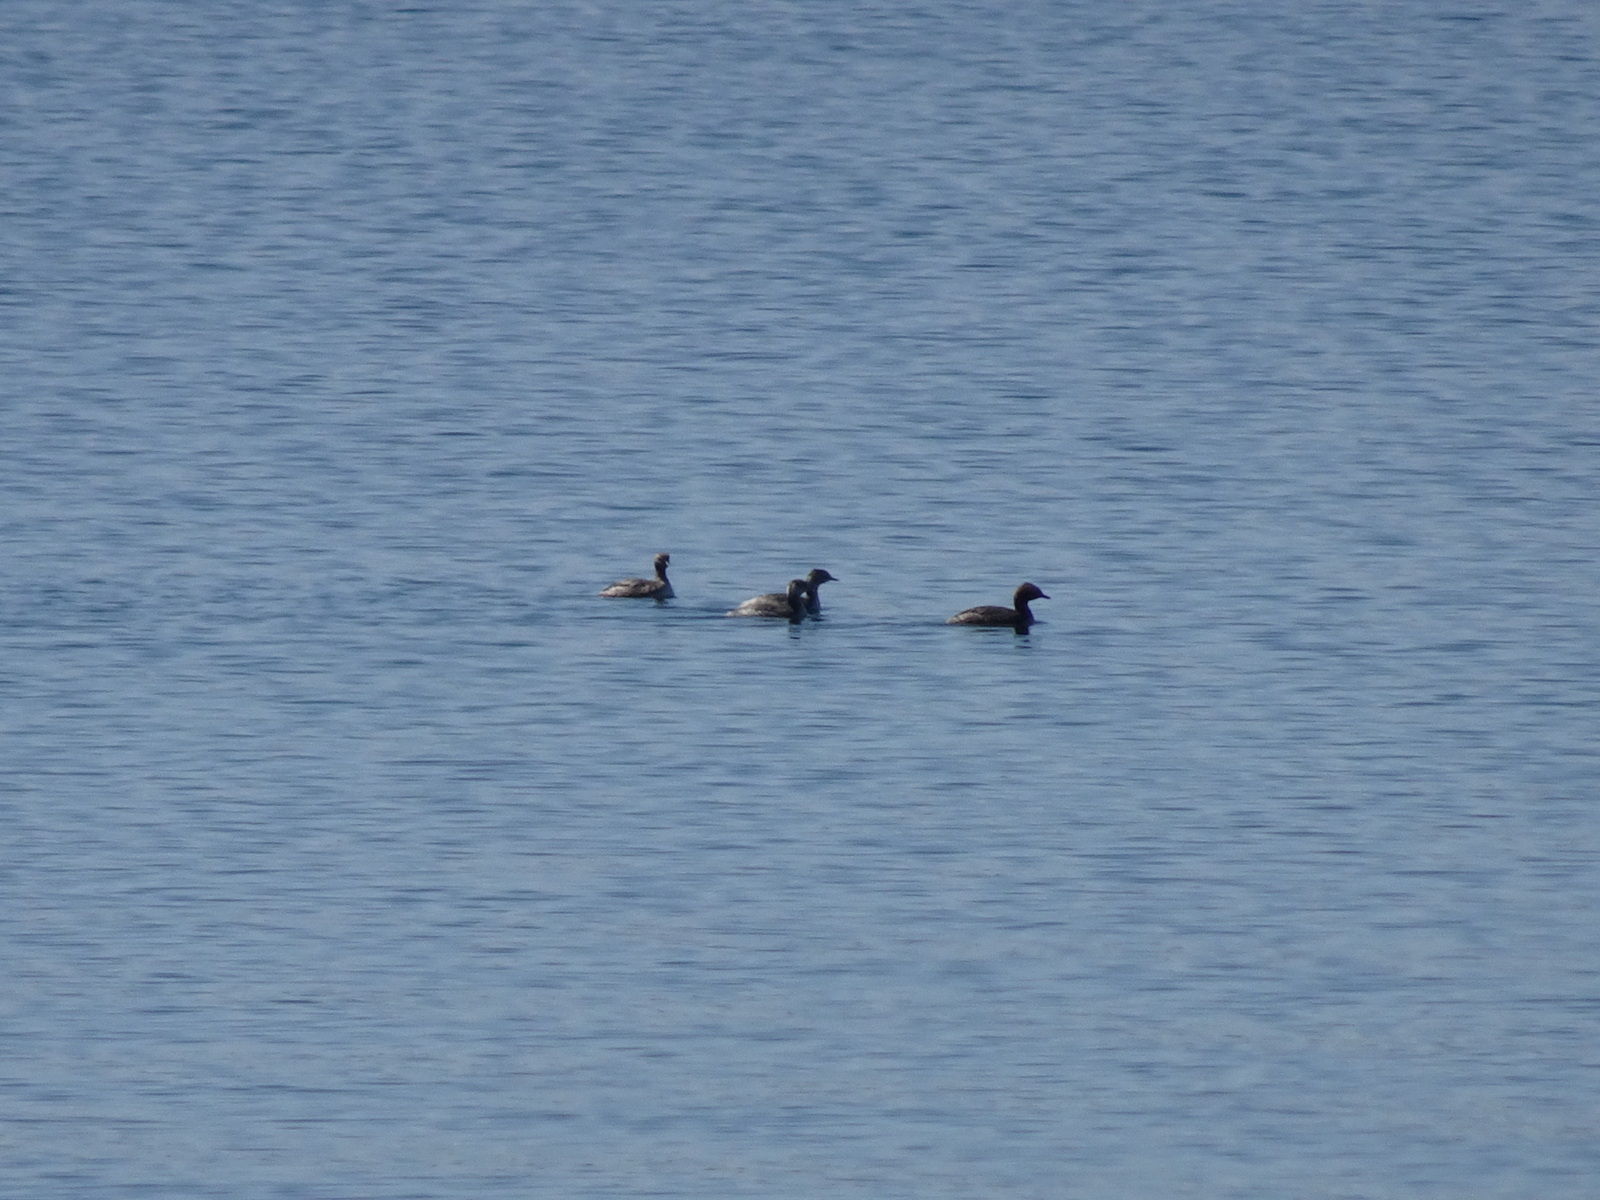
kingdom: Animalia
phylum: Chordata
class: Aves
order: Podicipediformes
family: Podicipedidae
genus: Podiceps
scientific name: Podiceps auritus
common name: Horned grebe
